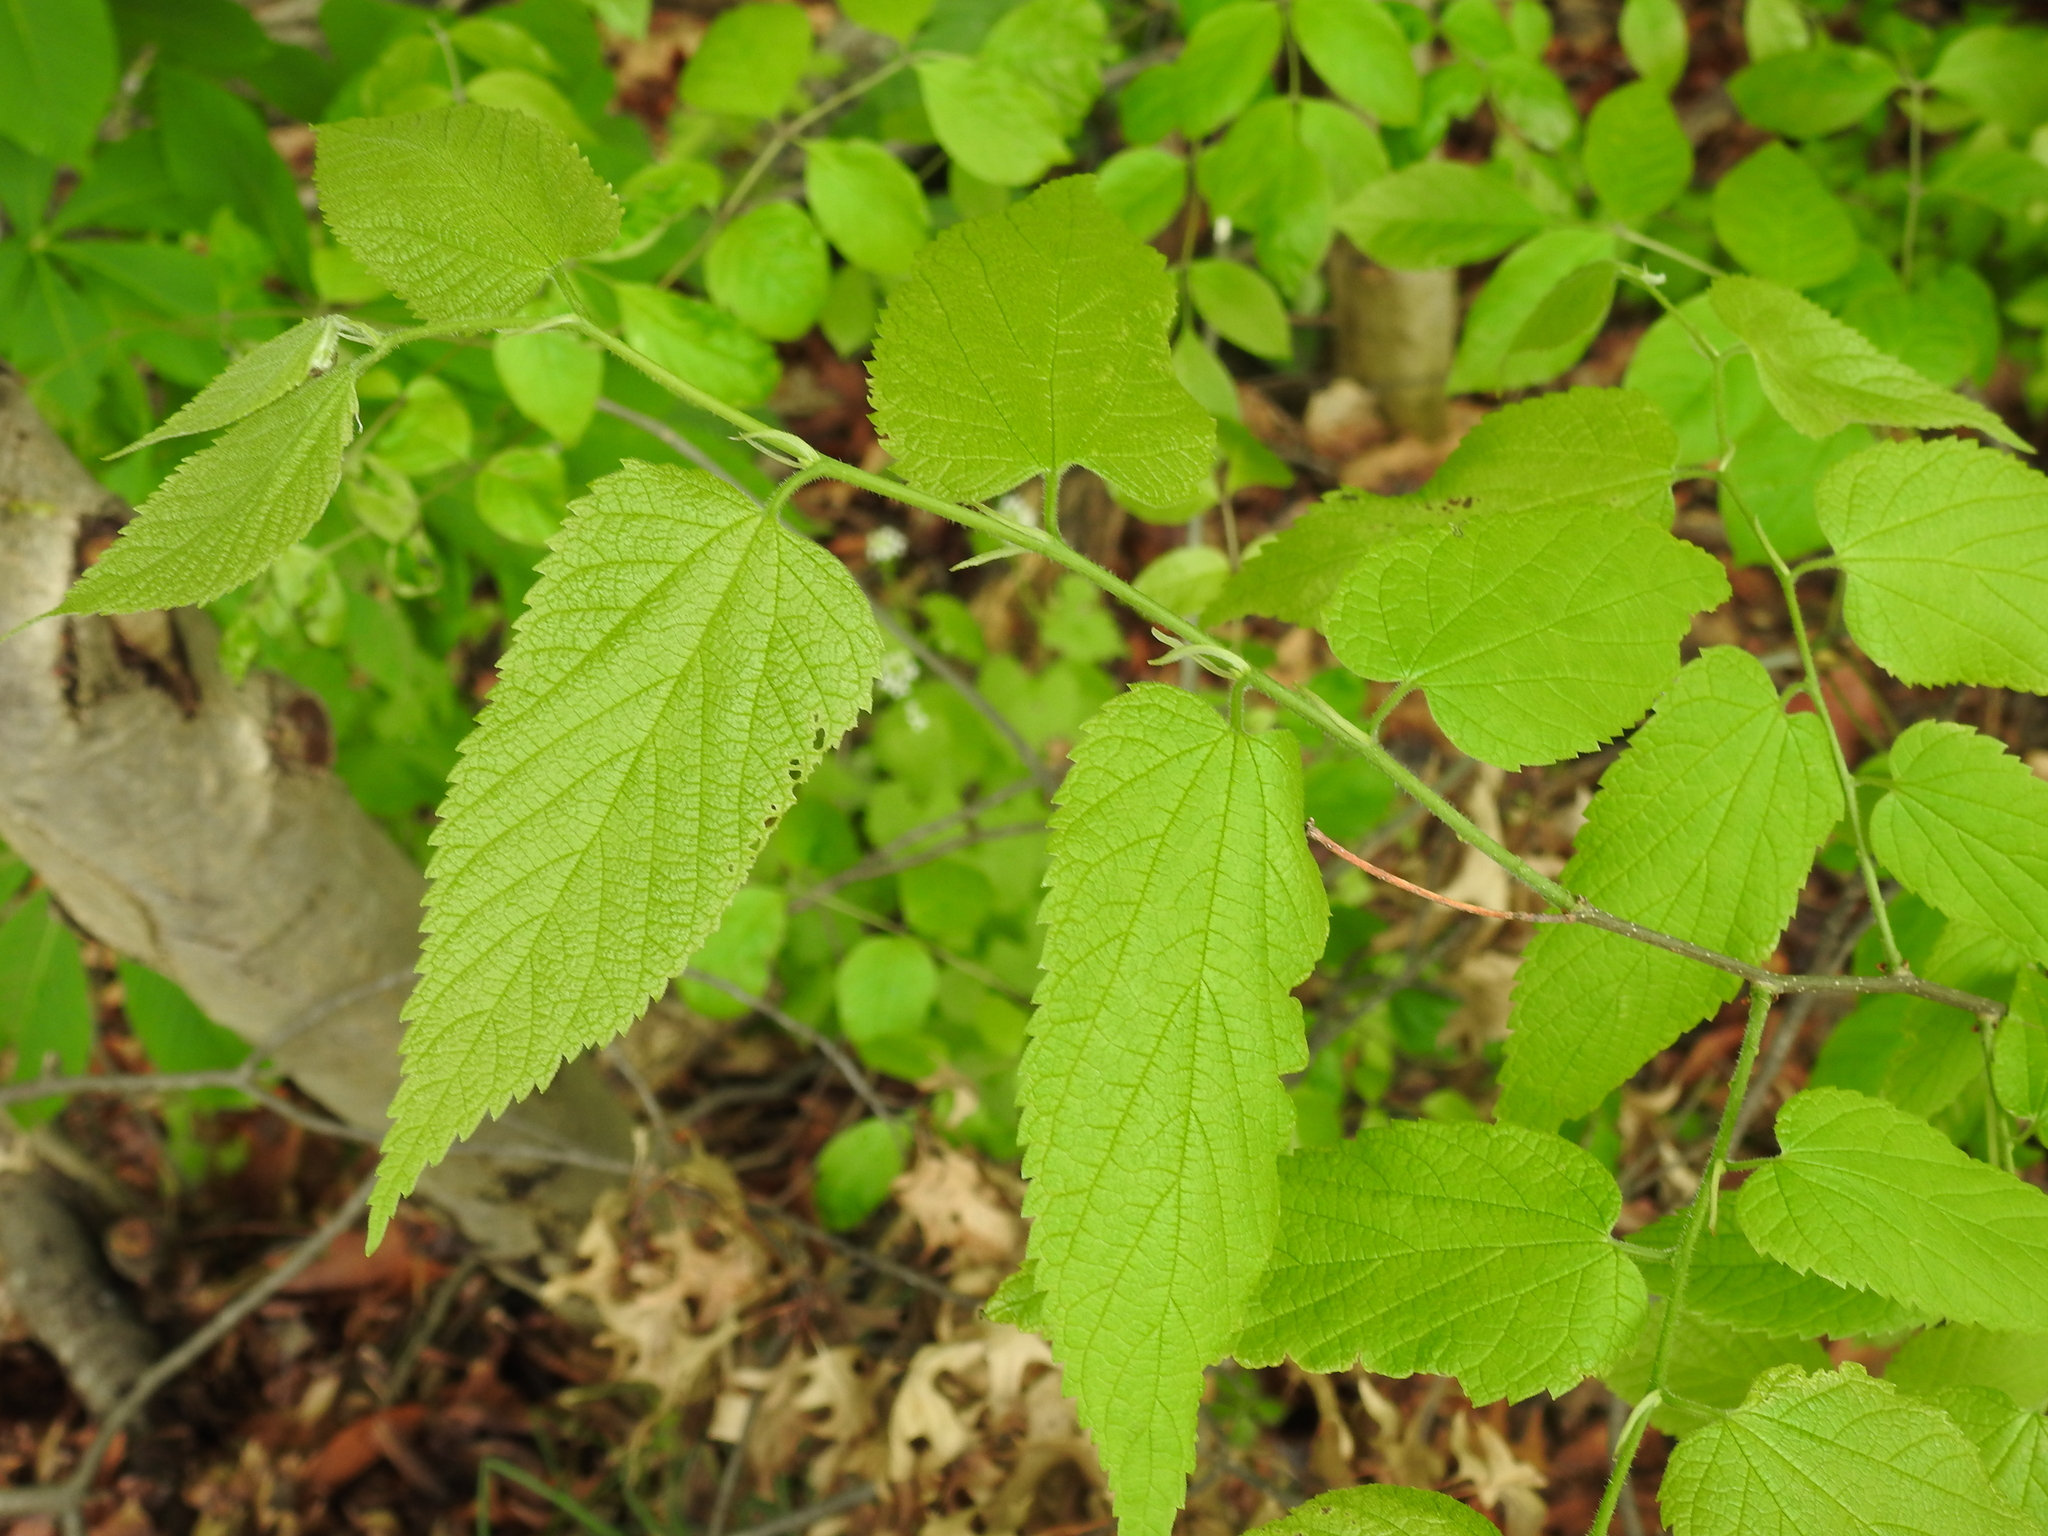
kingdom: Plantae
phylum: Tracheophyta
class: Magnoliopsida
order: Rosales
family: Cannabaceae
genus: Celtis
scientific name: Celtis occidentalis
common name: Common hackberry
